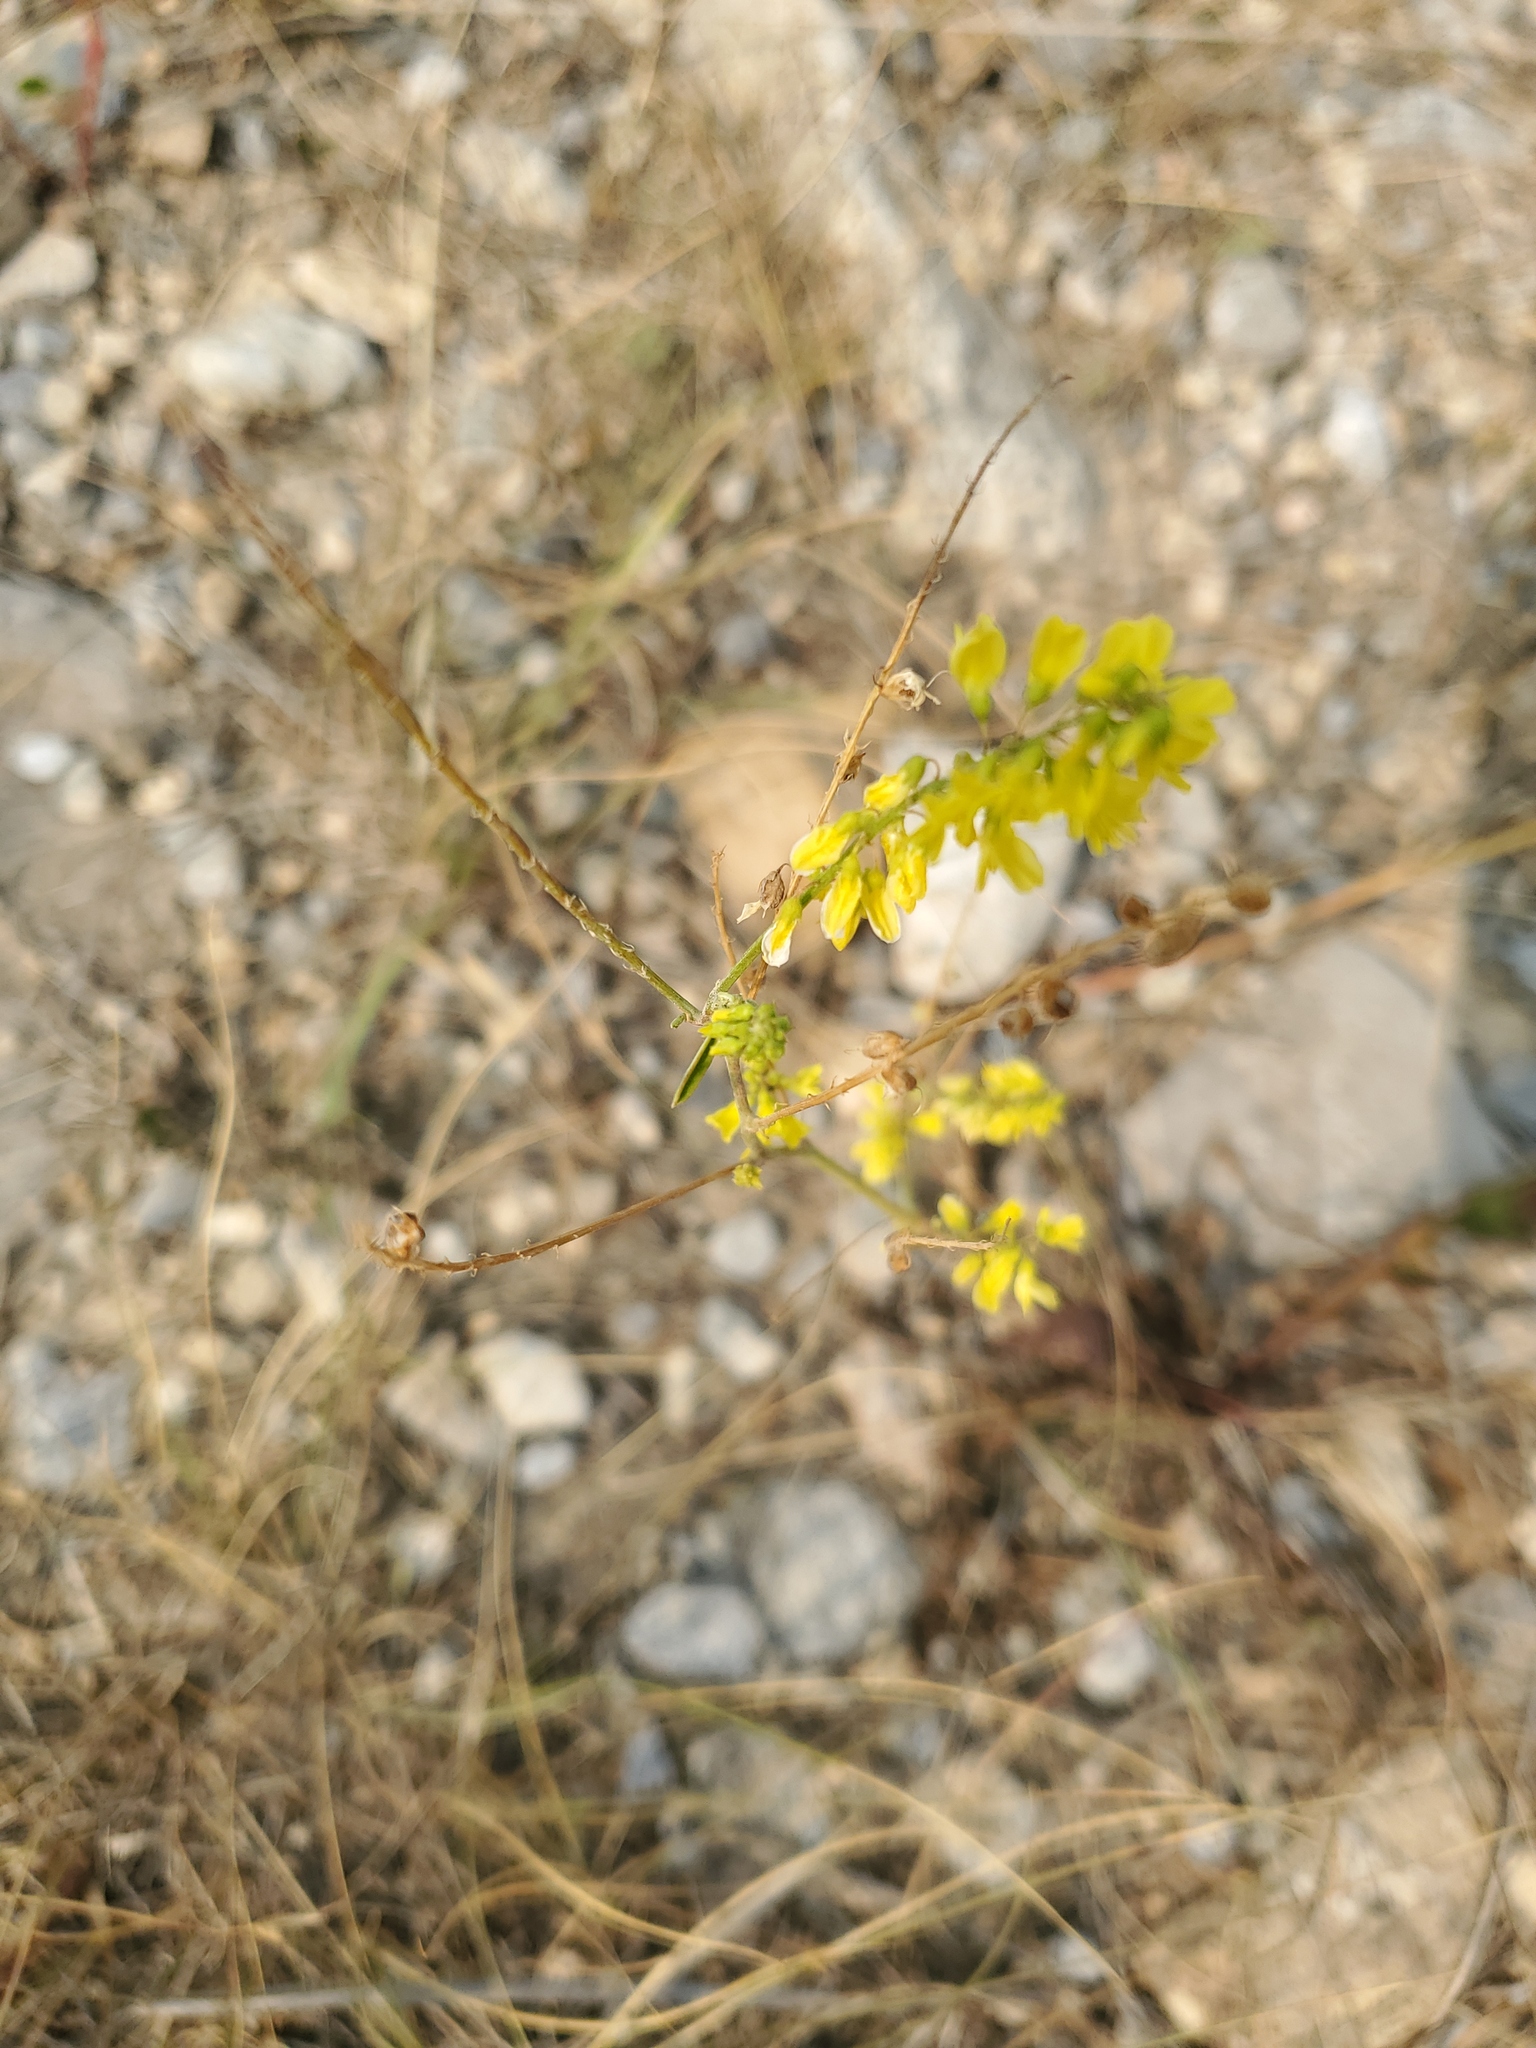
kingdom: Plantae
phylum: Tracheophyta
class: Magnoliopsida
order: Fabales
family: Fabaceae
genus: Melilotus
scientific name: Melilotus officinalis
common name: Sweetclover
